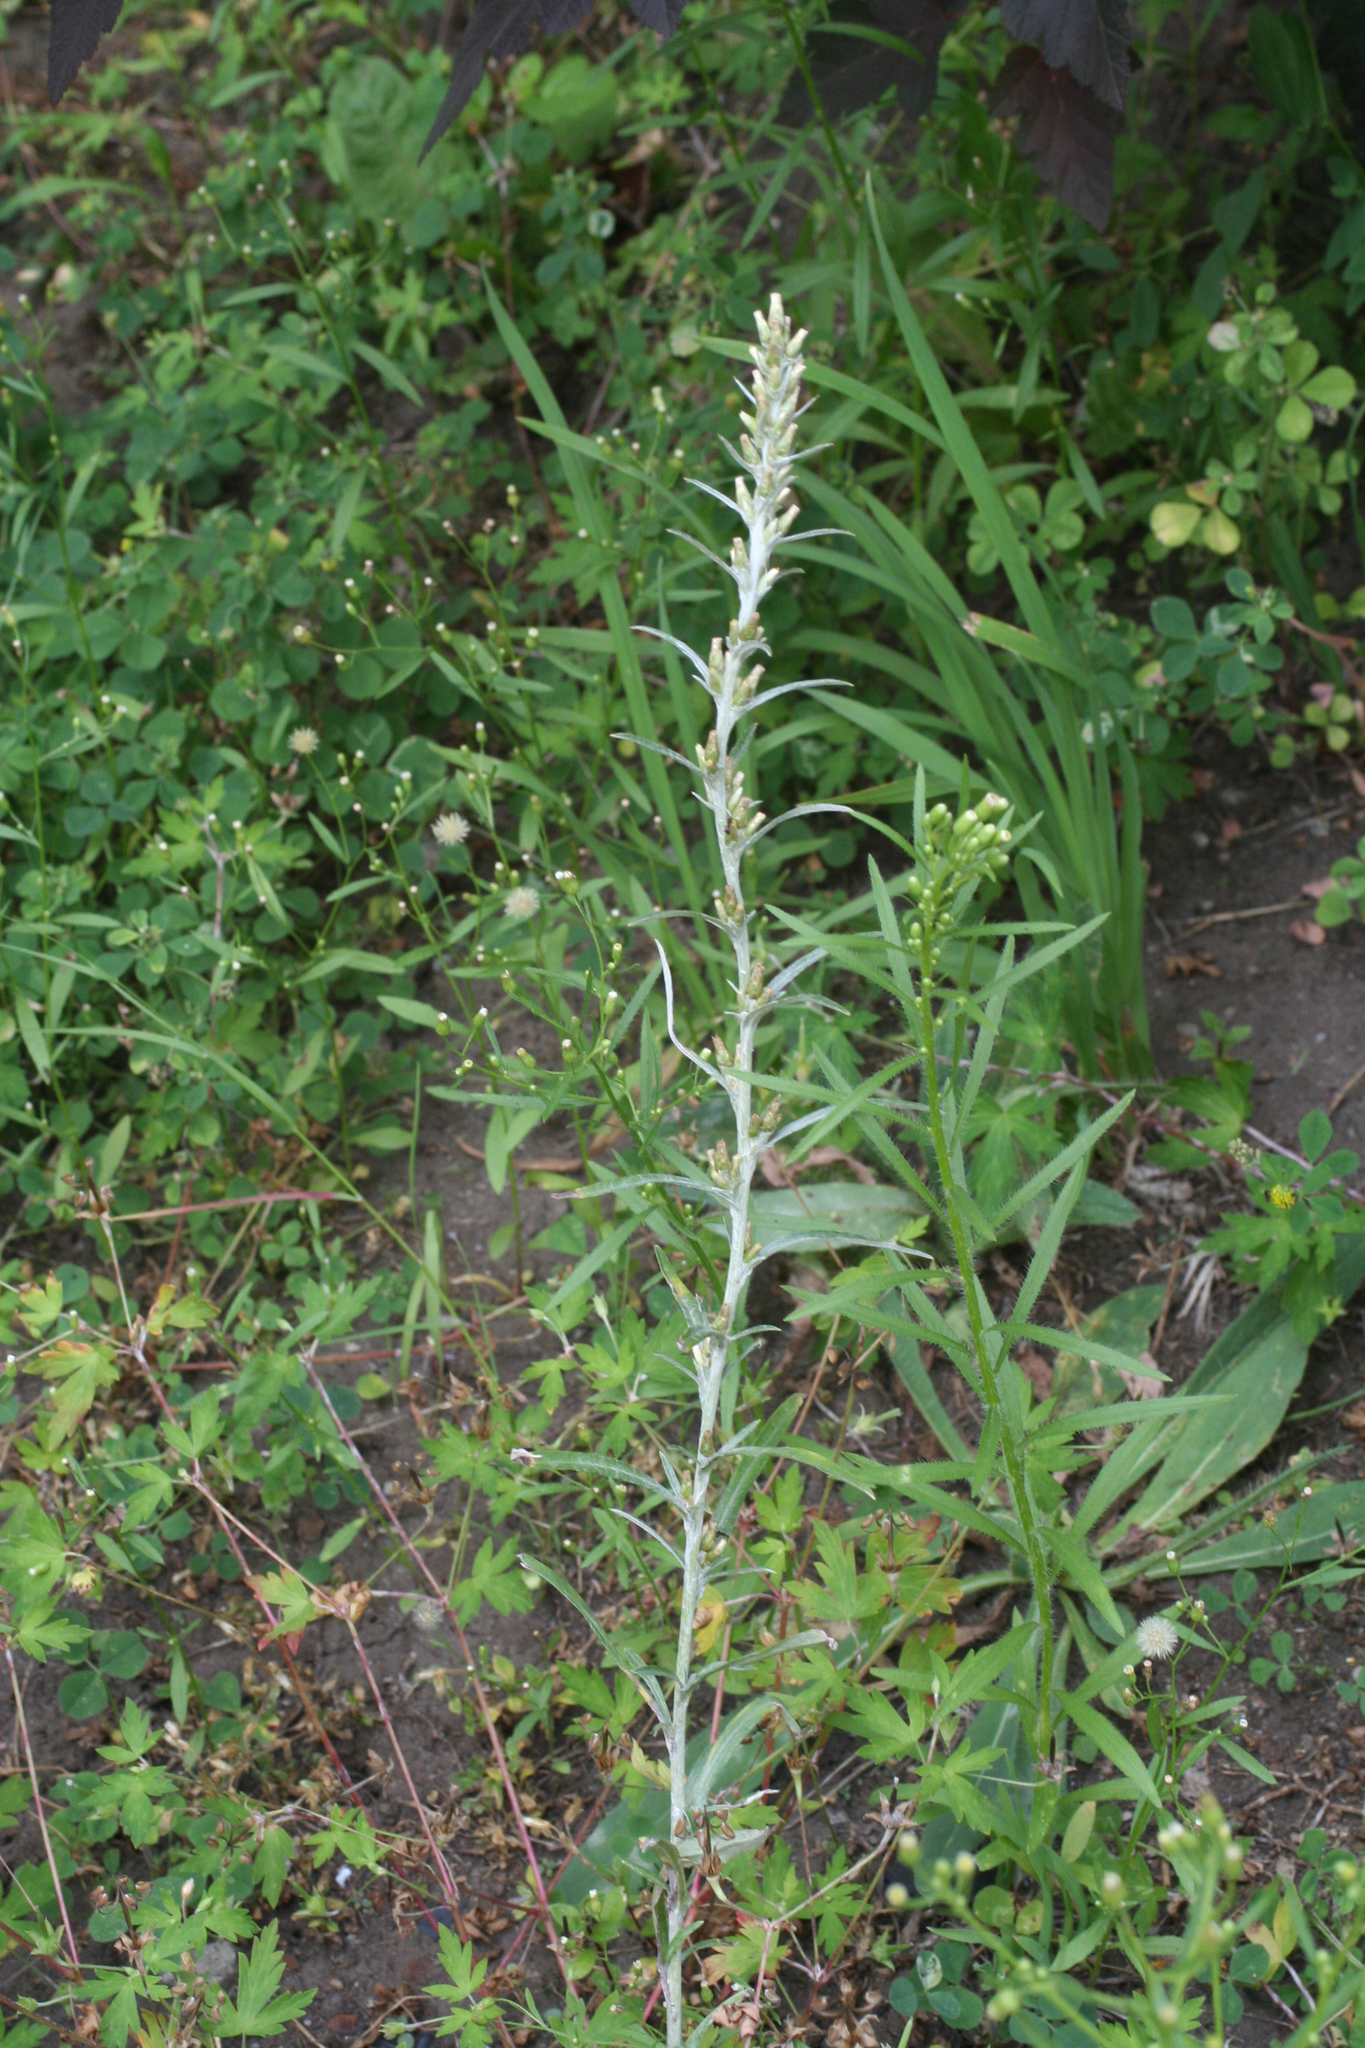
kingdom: Plantae
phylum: Tracheophyta
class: Magnoliopsida
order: Asterales
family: Asteraceae
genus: Omalotheca
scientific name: Omalotheca sylvatica
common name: Heath cudweed
